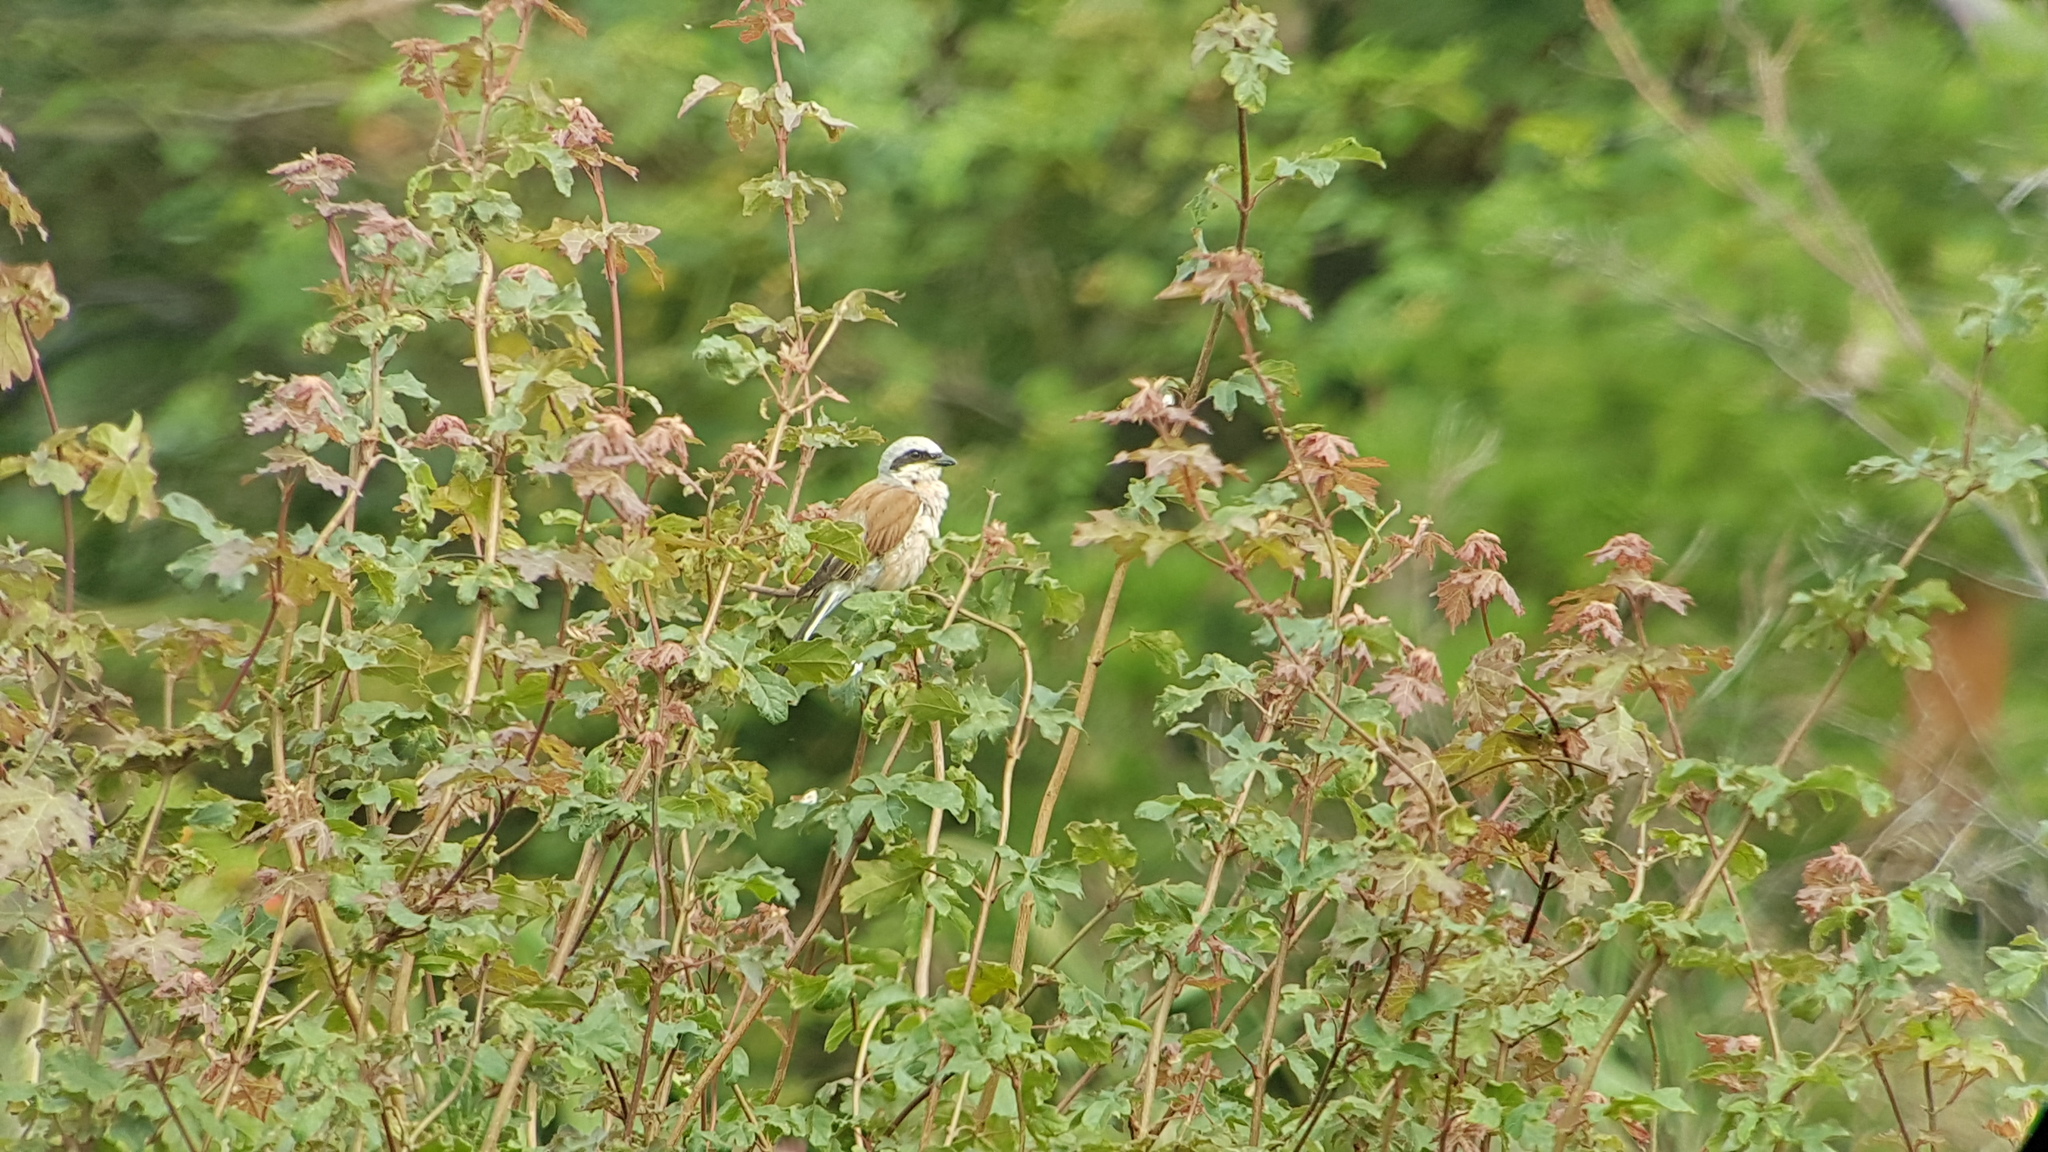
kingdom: Animalia
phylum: Chordata
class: Aves
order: Passeriformes
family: Laniidae
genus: Lanius
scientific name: Lanius collurio
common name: Red-backed shrike
